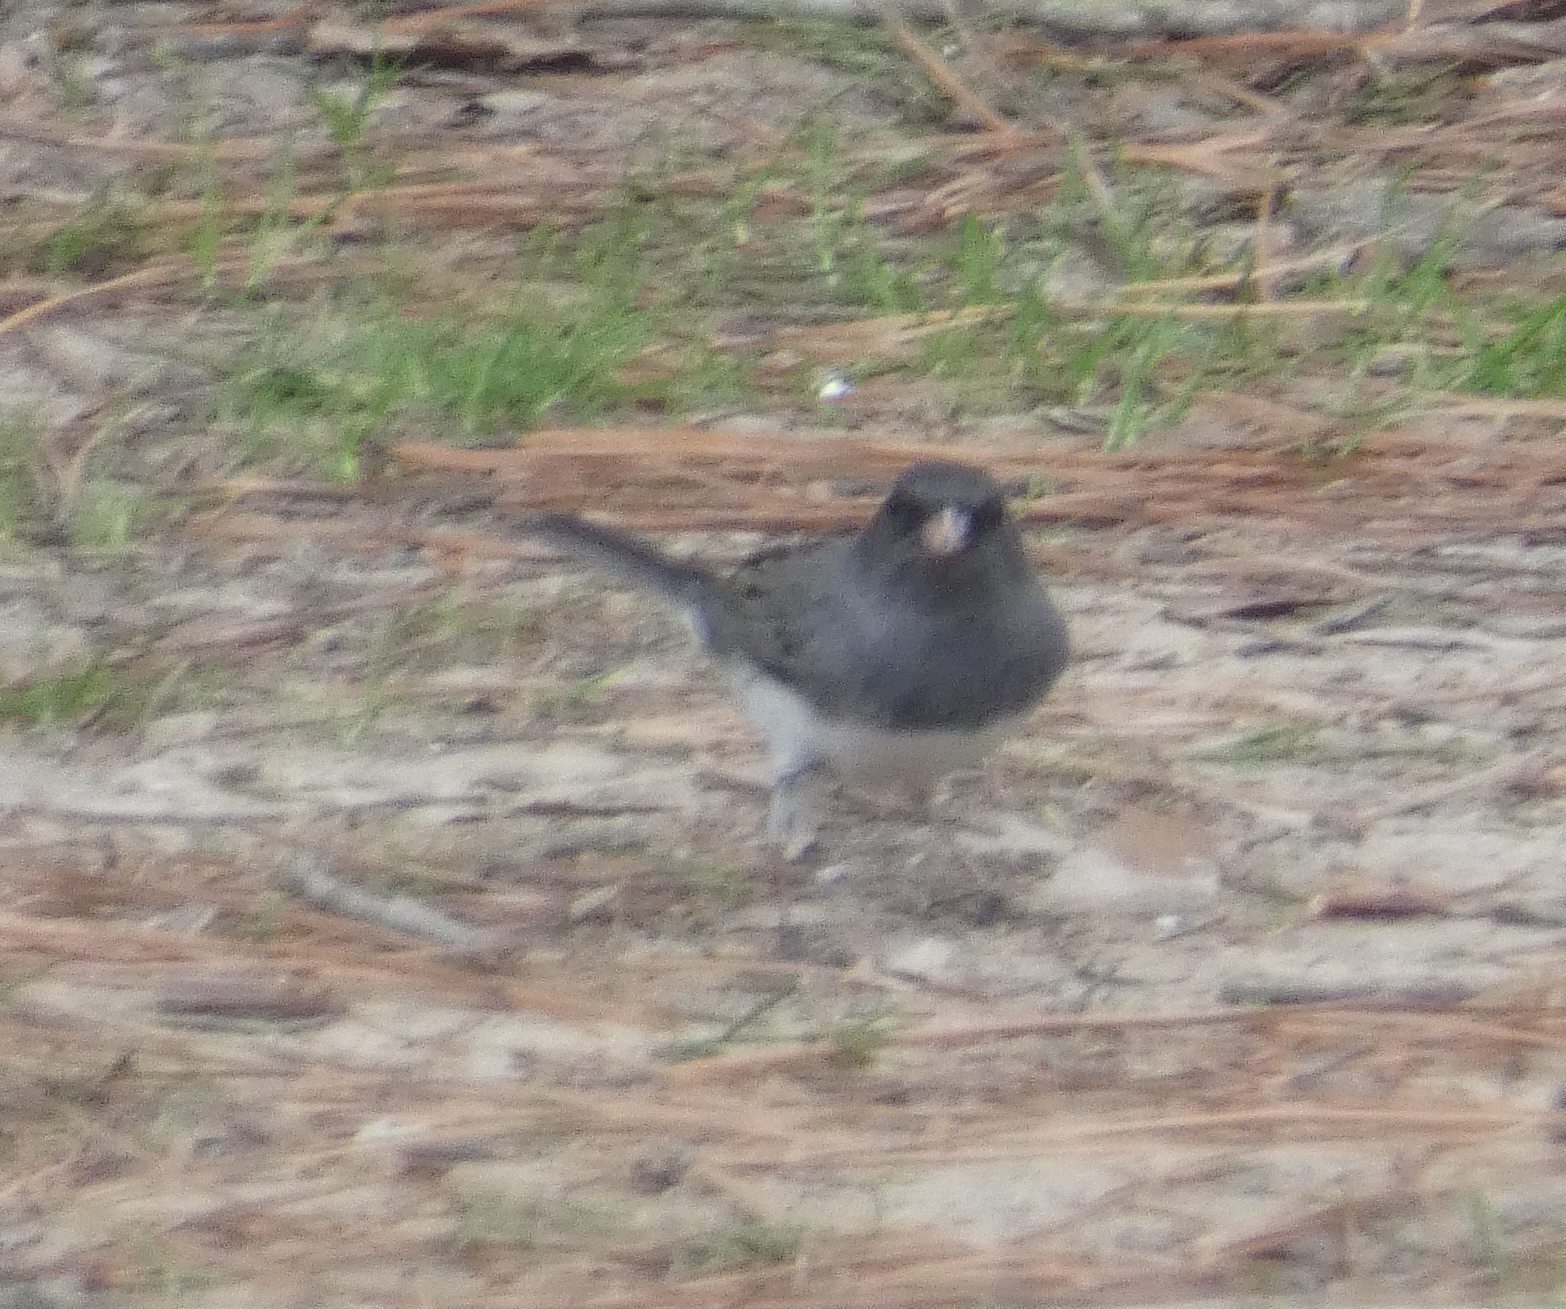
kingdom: Animalia
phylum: Chordata
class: Aves
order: Passeriformes
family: Passerellidae
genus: Junco
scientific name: Junco hyemalis
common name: Dark-eyed junco
